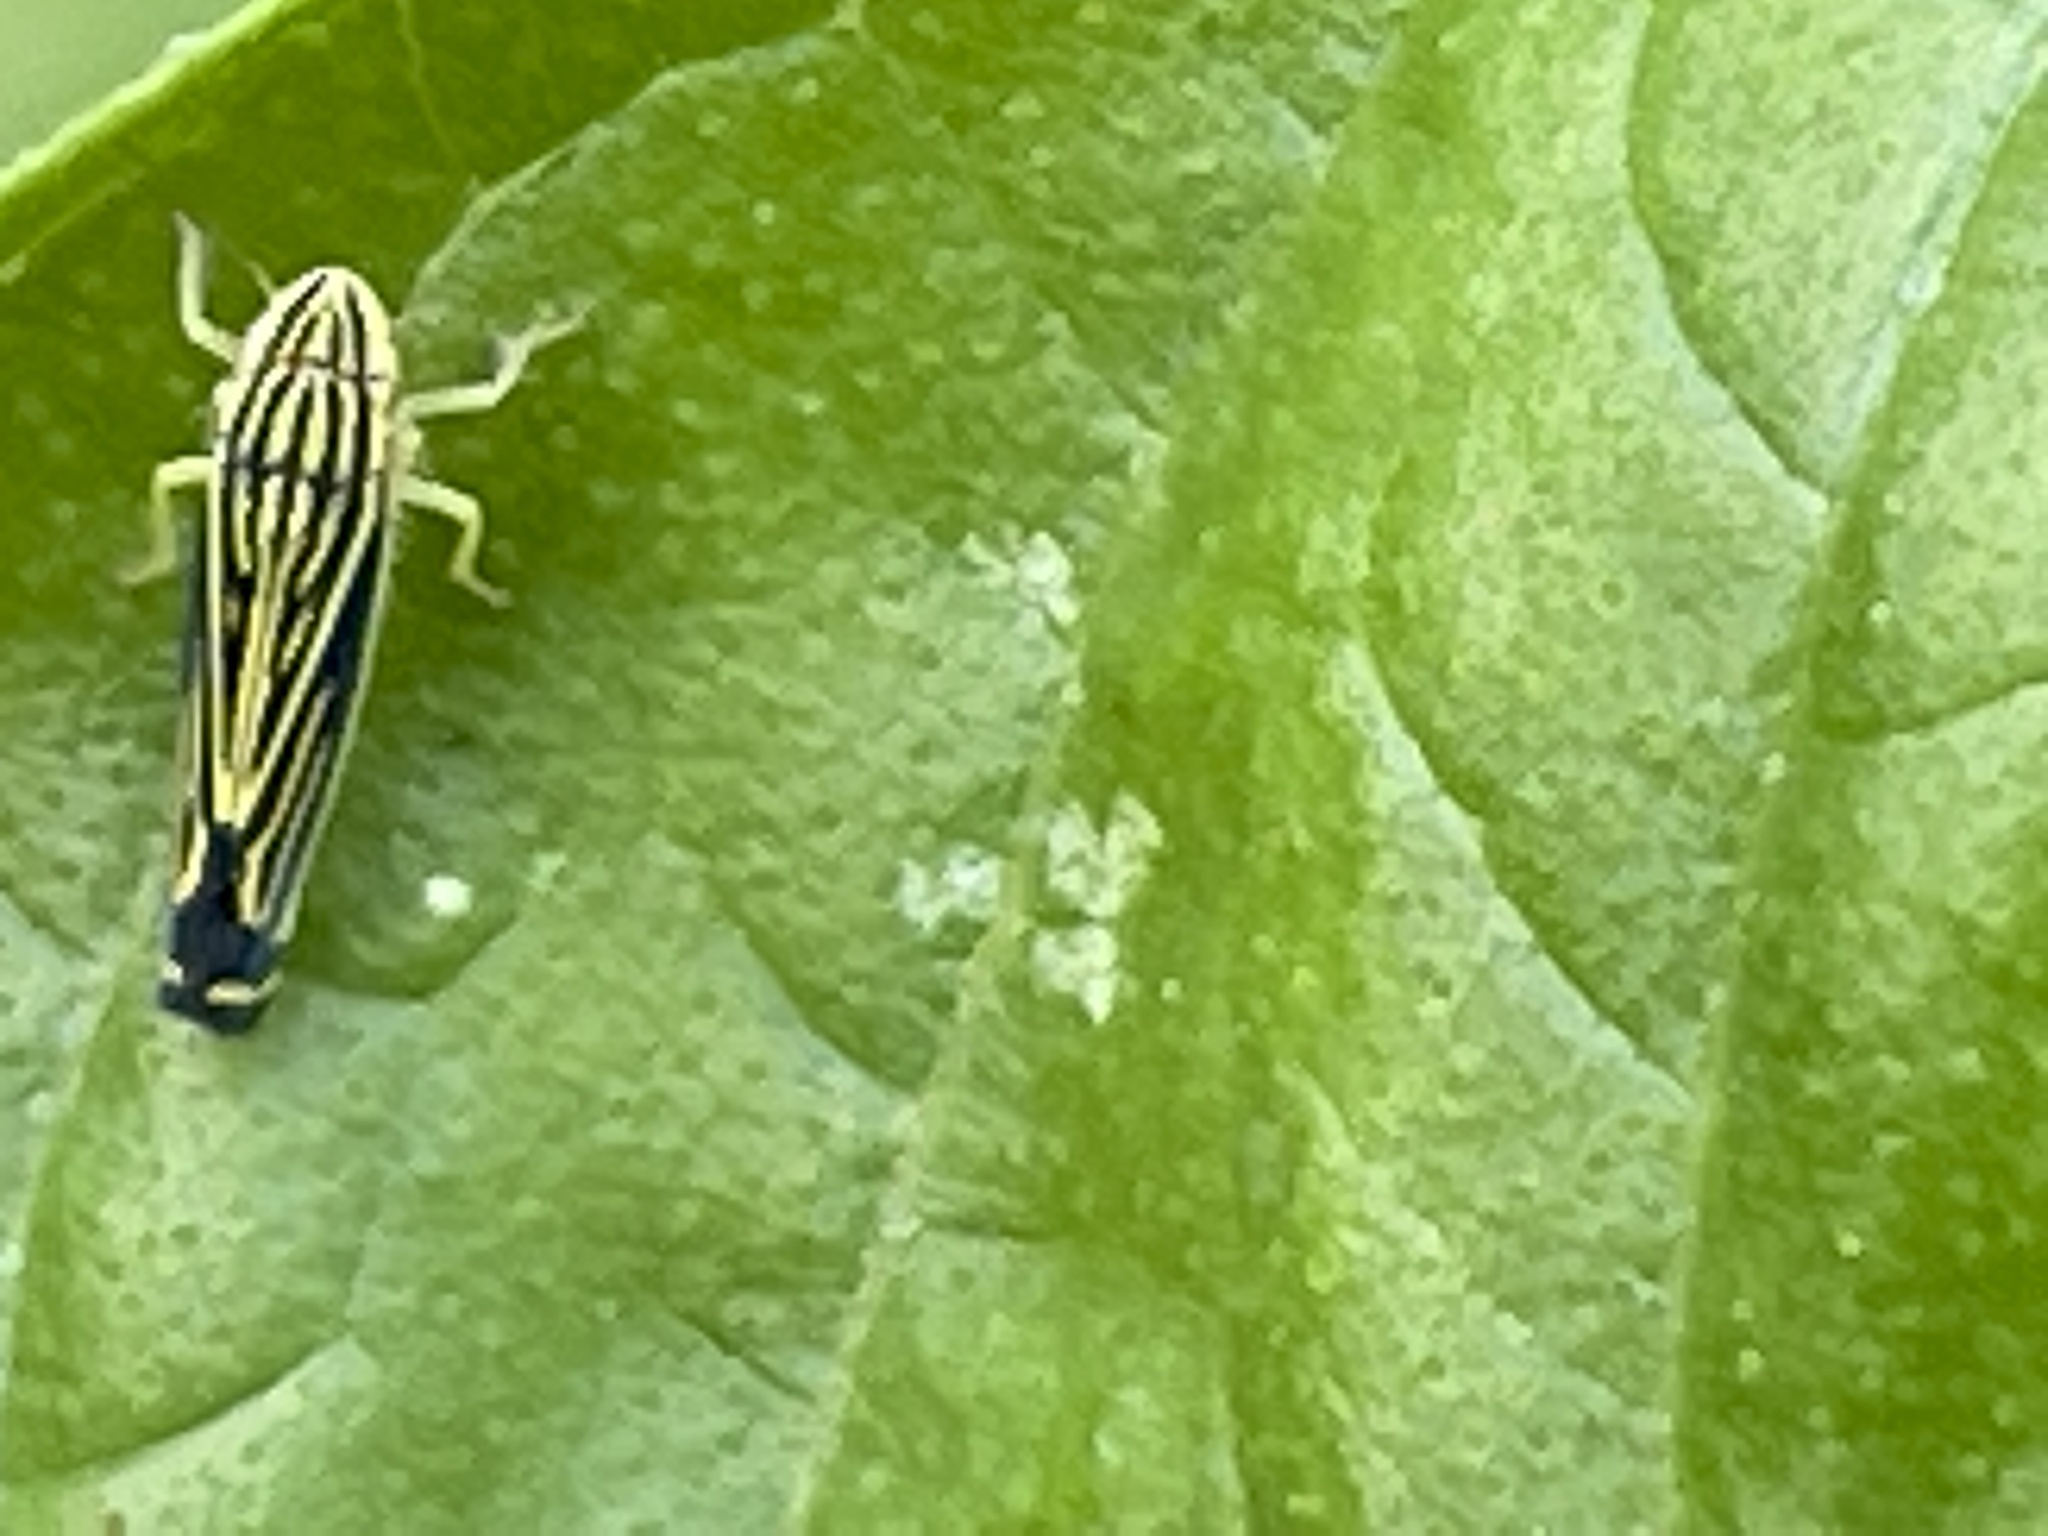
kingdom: Animalia
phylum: Arthropoda
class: Insecta
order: Hemiptera
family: Cicadellidae
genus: Sibovia
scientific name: Sibovia occatoria
